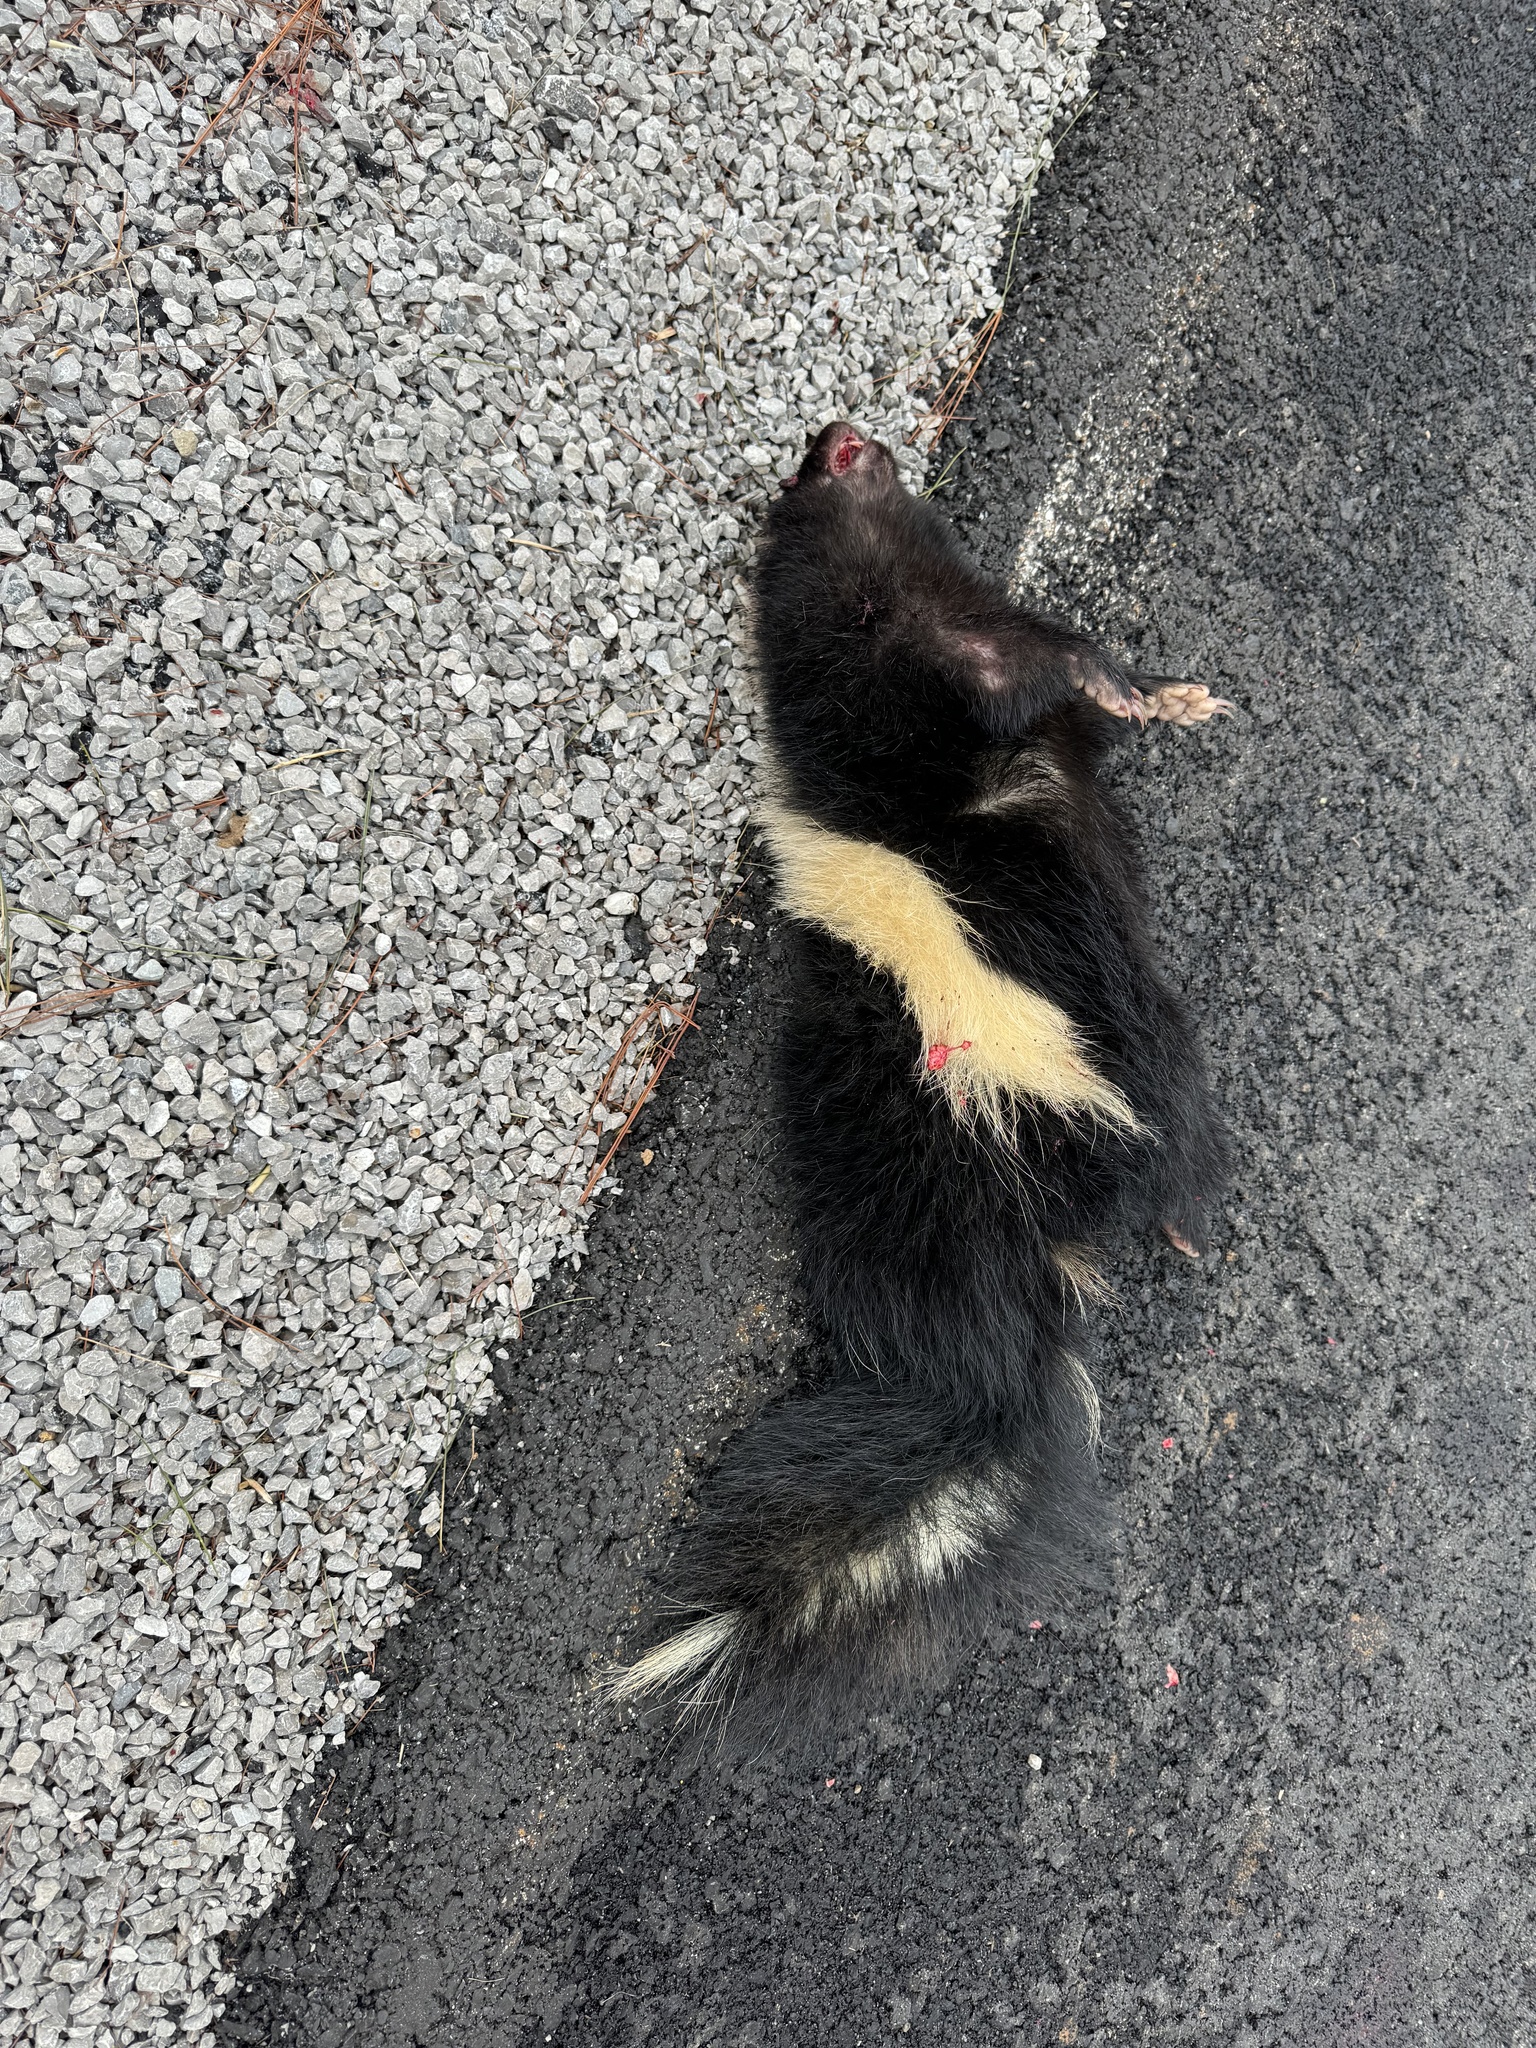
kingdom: Animalia
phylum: Chordata
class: Mammalia
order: Carnivora
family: Mephitidae
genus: Mephitis
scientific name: Mephitis mephitis
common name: Striped skunk
